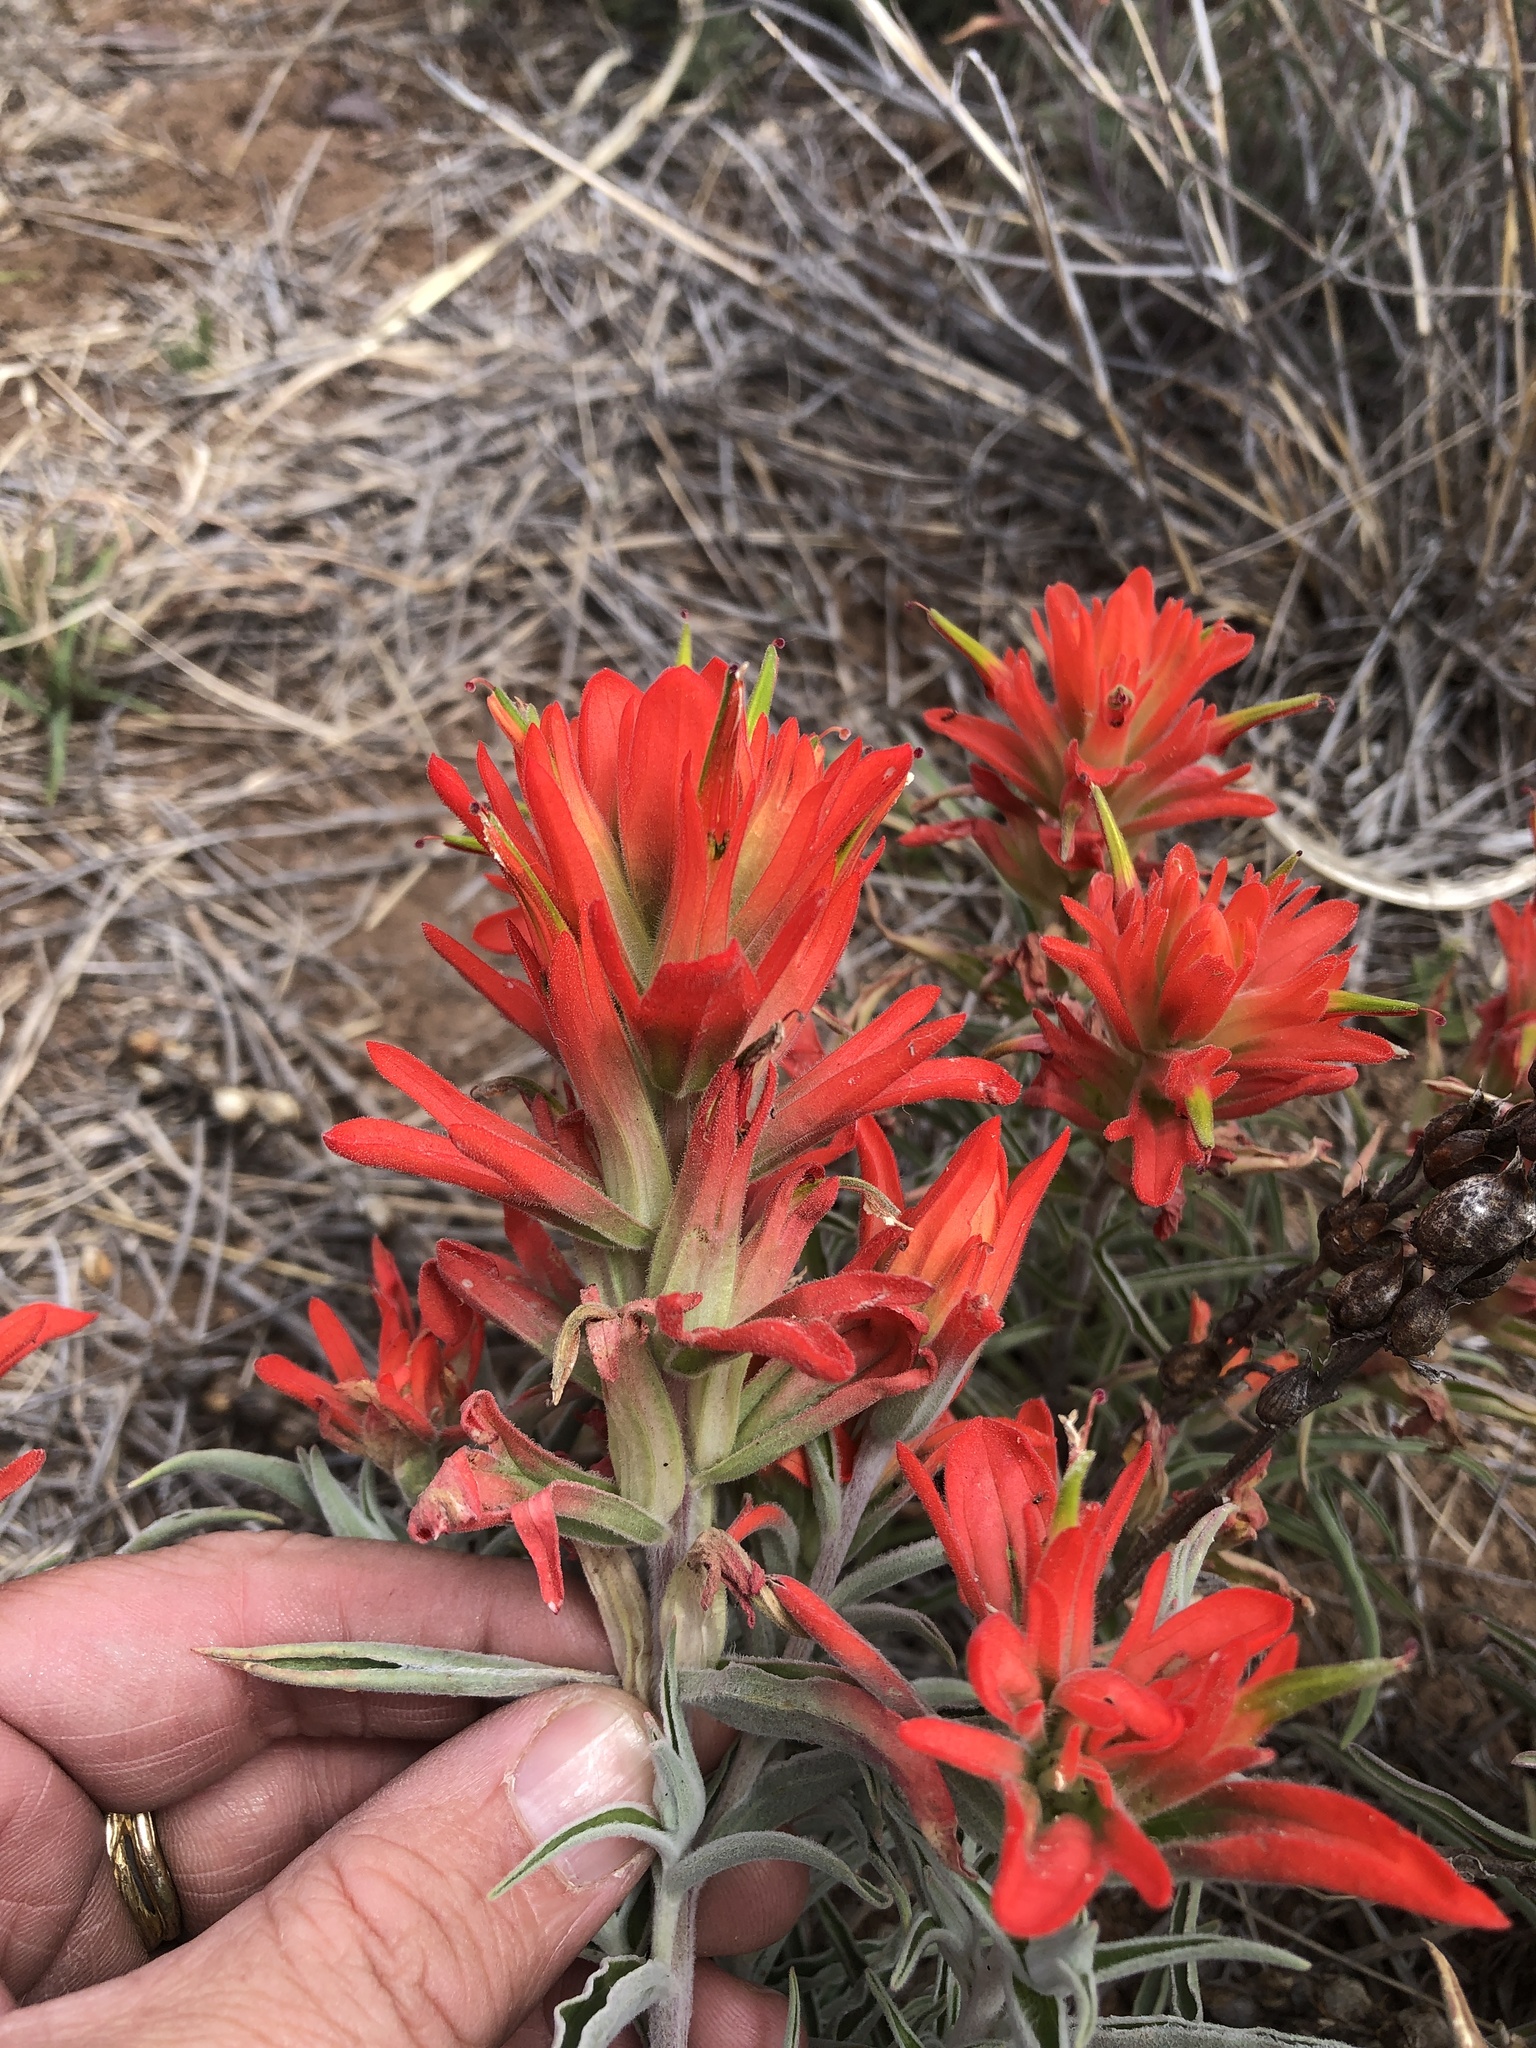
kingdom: Plantae
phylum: Tracheophyta
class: Magnoliopsida
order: Lamiales
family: Orobanchaceae
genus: Castilleja
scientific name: Castilleja integra
